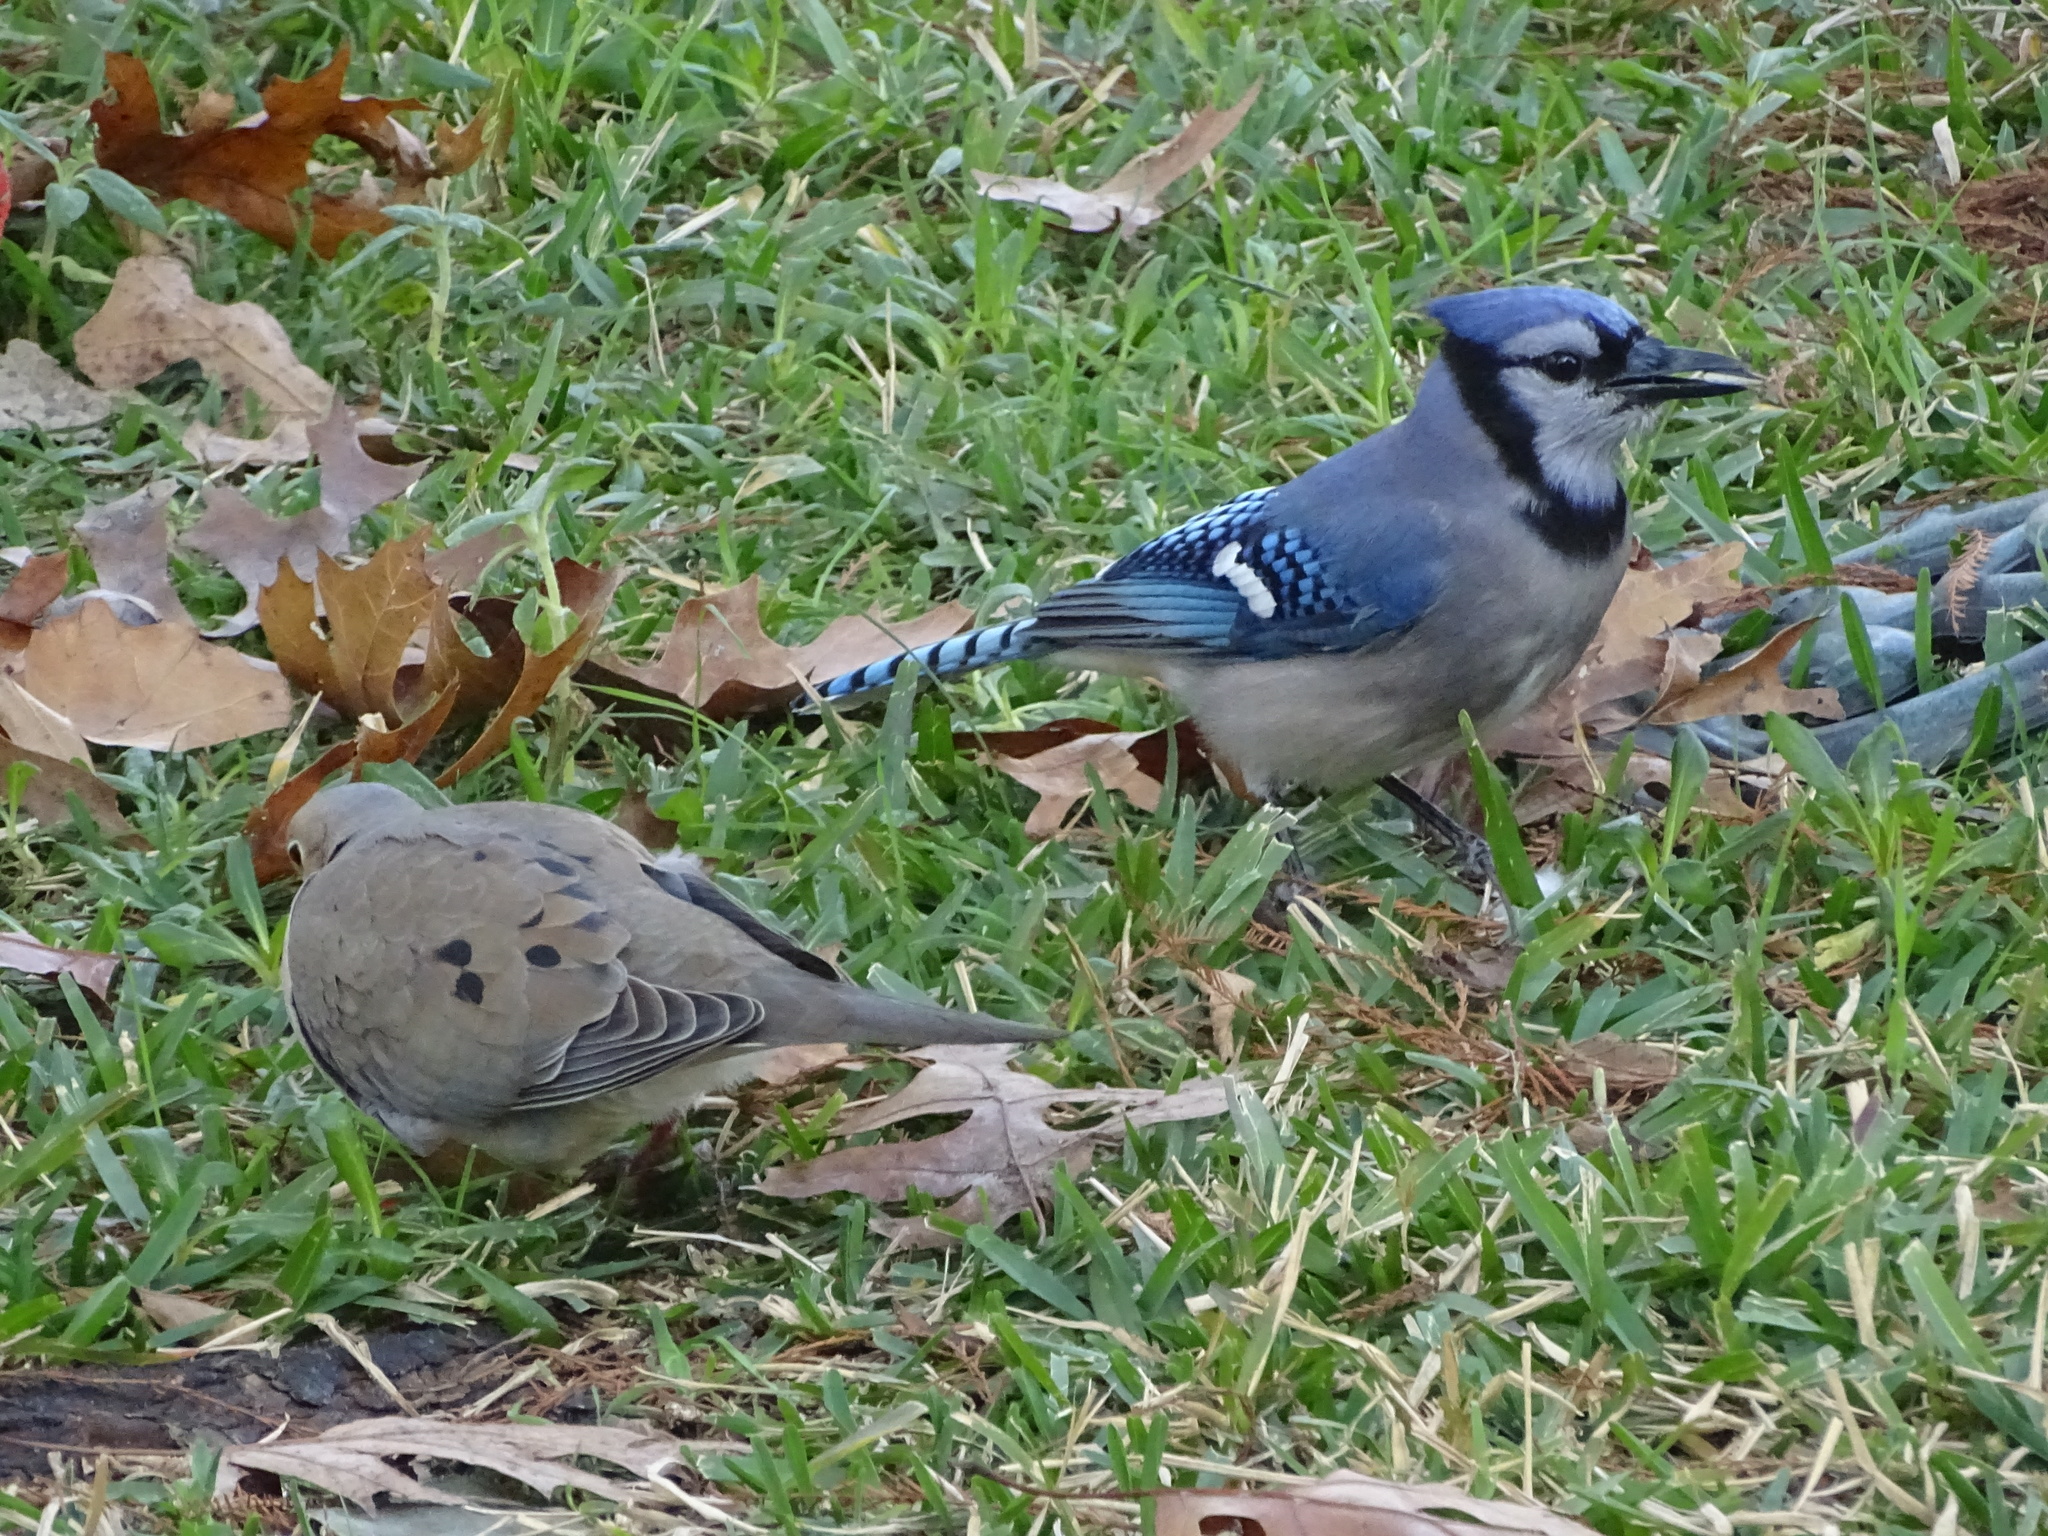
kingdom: Animalia
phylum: Chordata
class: Aves
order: Passeriformes
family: Corvidae
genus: Cyanocitta
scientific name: Cyanocitta cristata
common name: Blue jay
